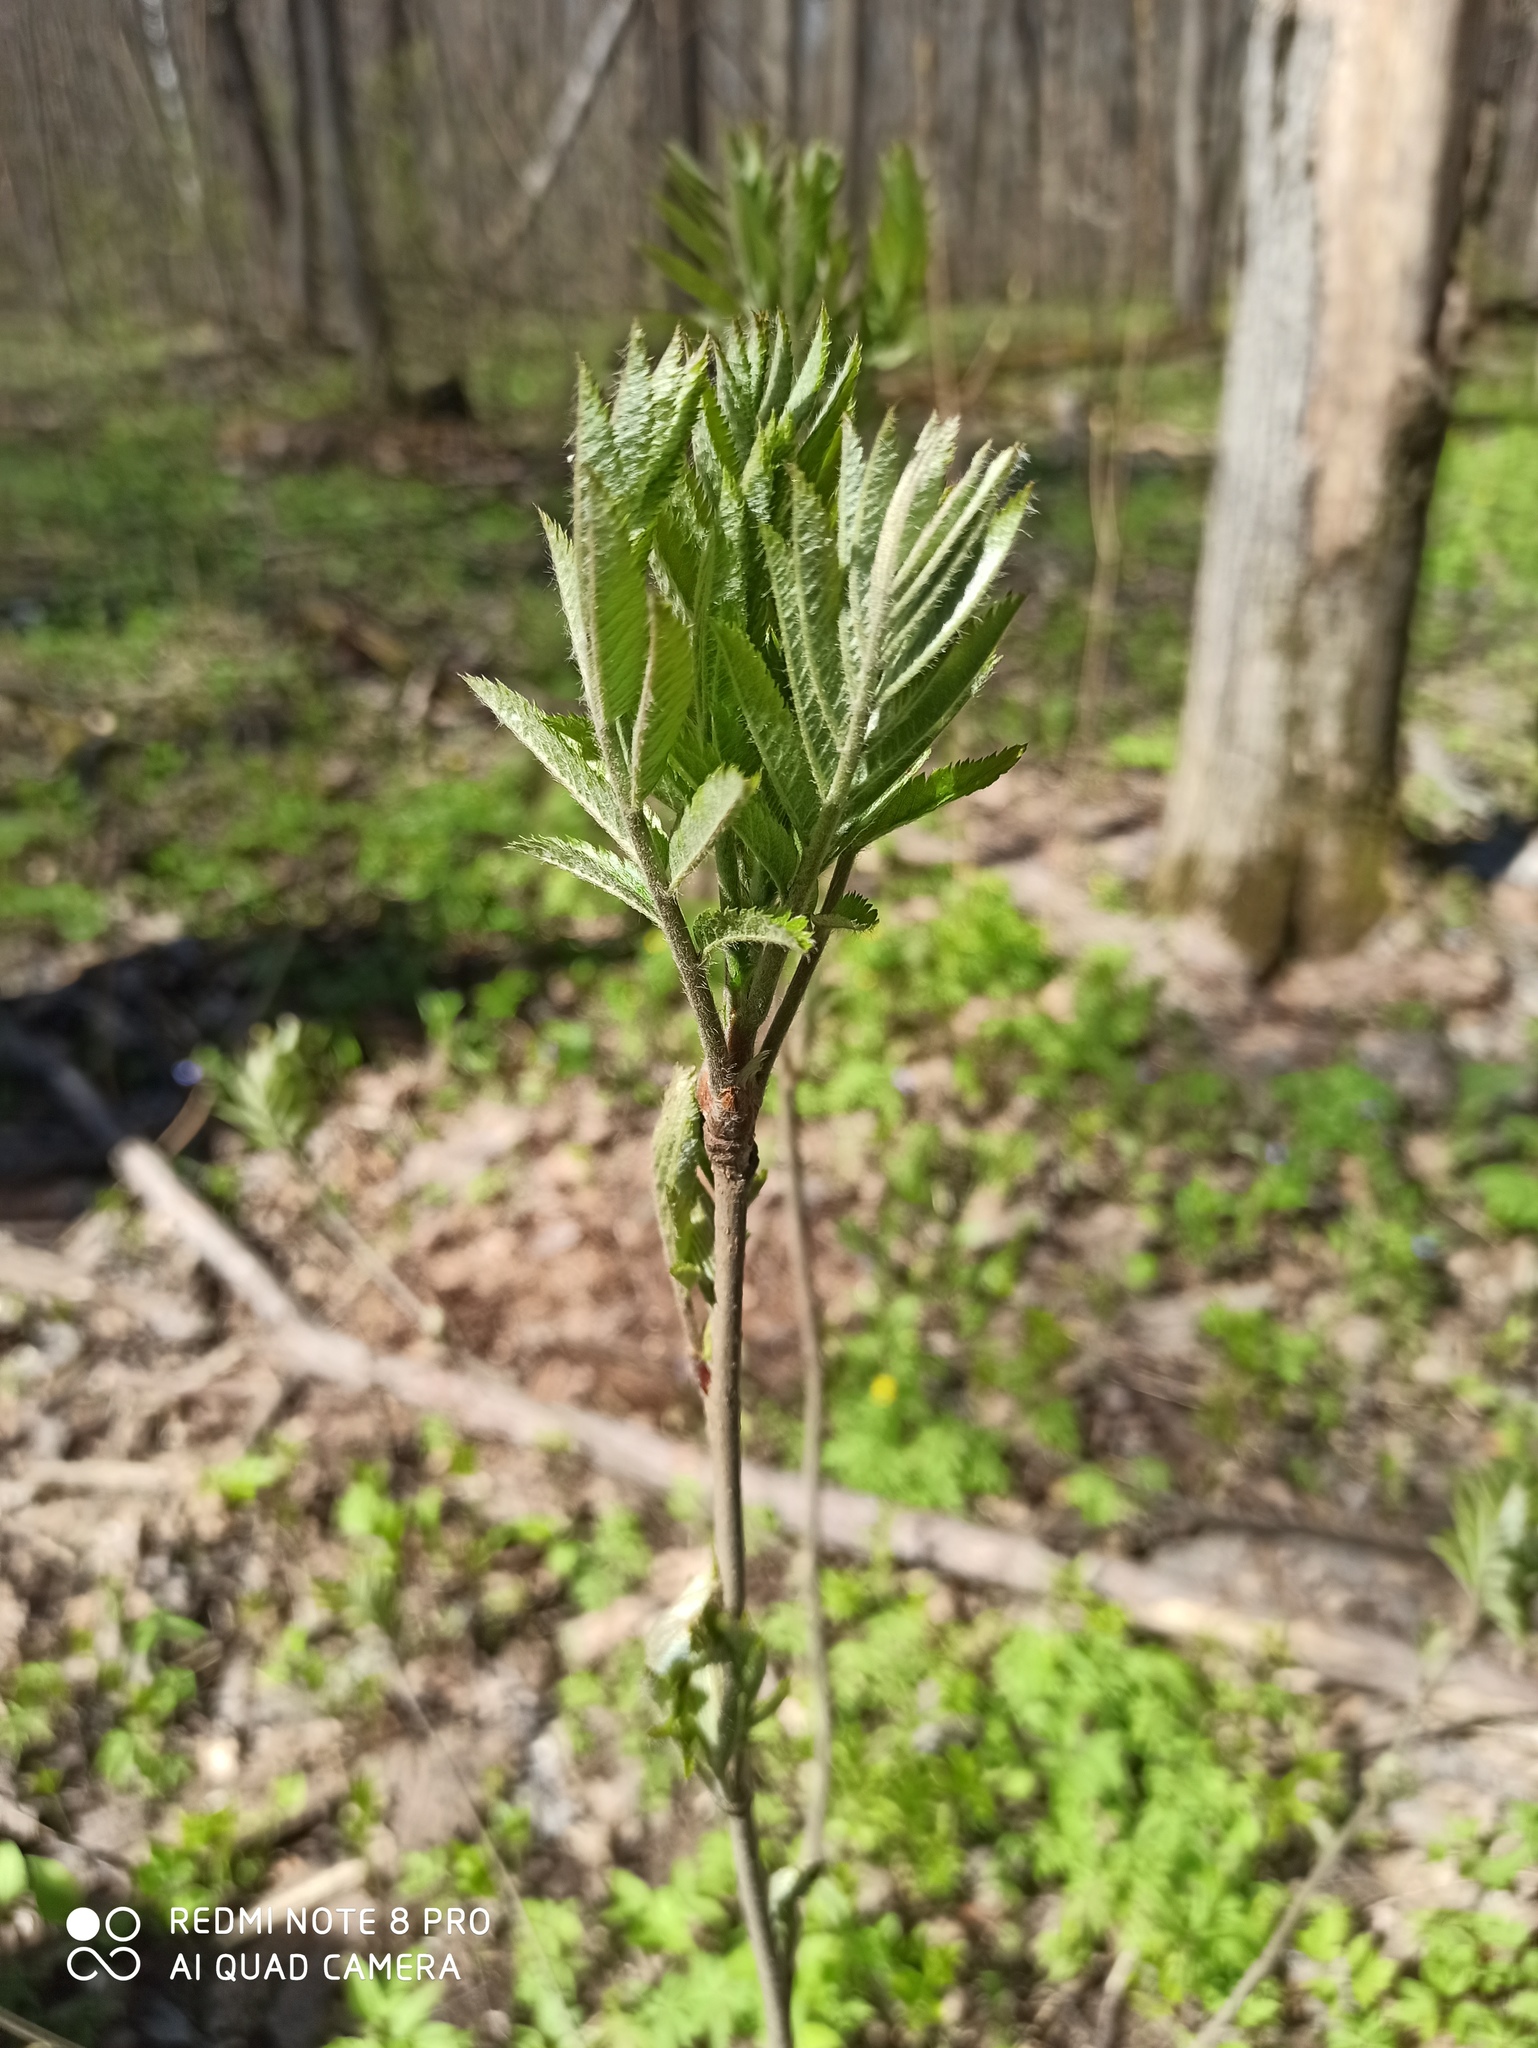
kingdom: Plantae
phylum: Tracheophyta
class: Magnoliopsida
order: Rosales
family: Rosaceae
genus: Sorbus
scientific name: Sorbus aucuparia
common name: Rowan
